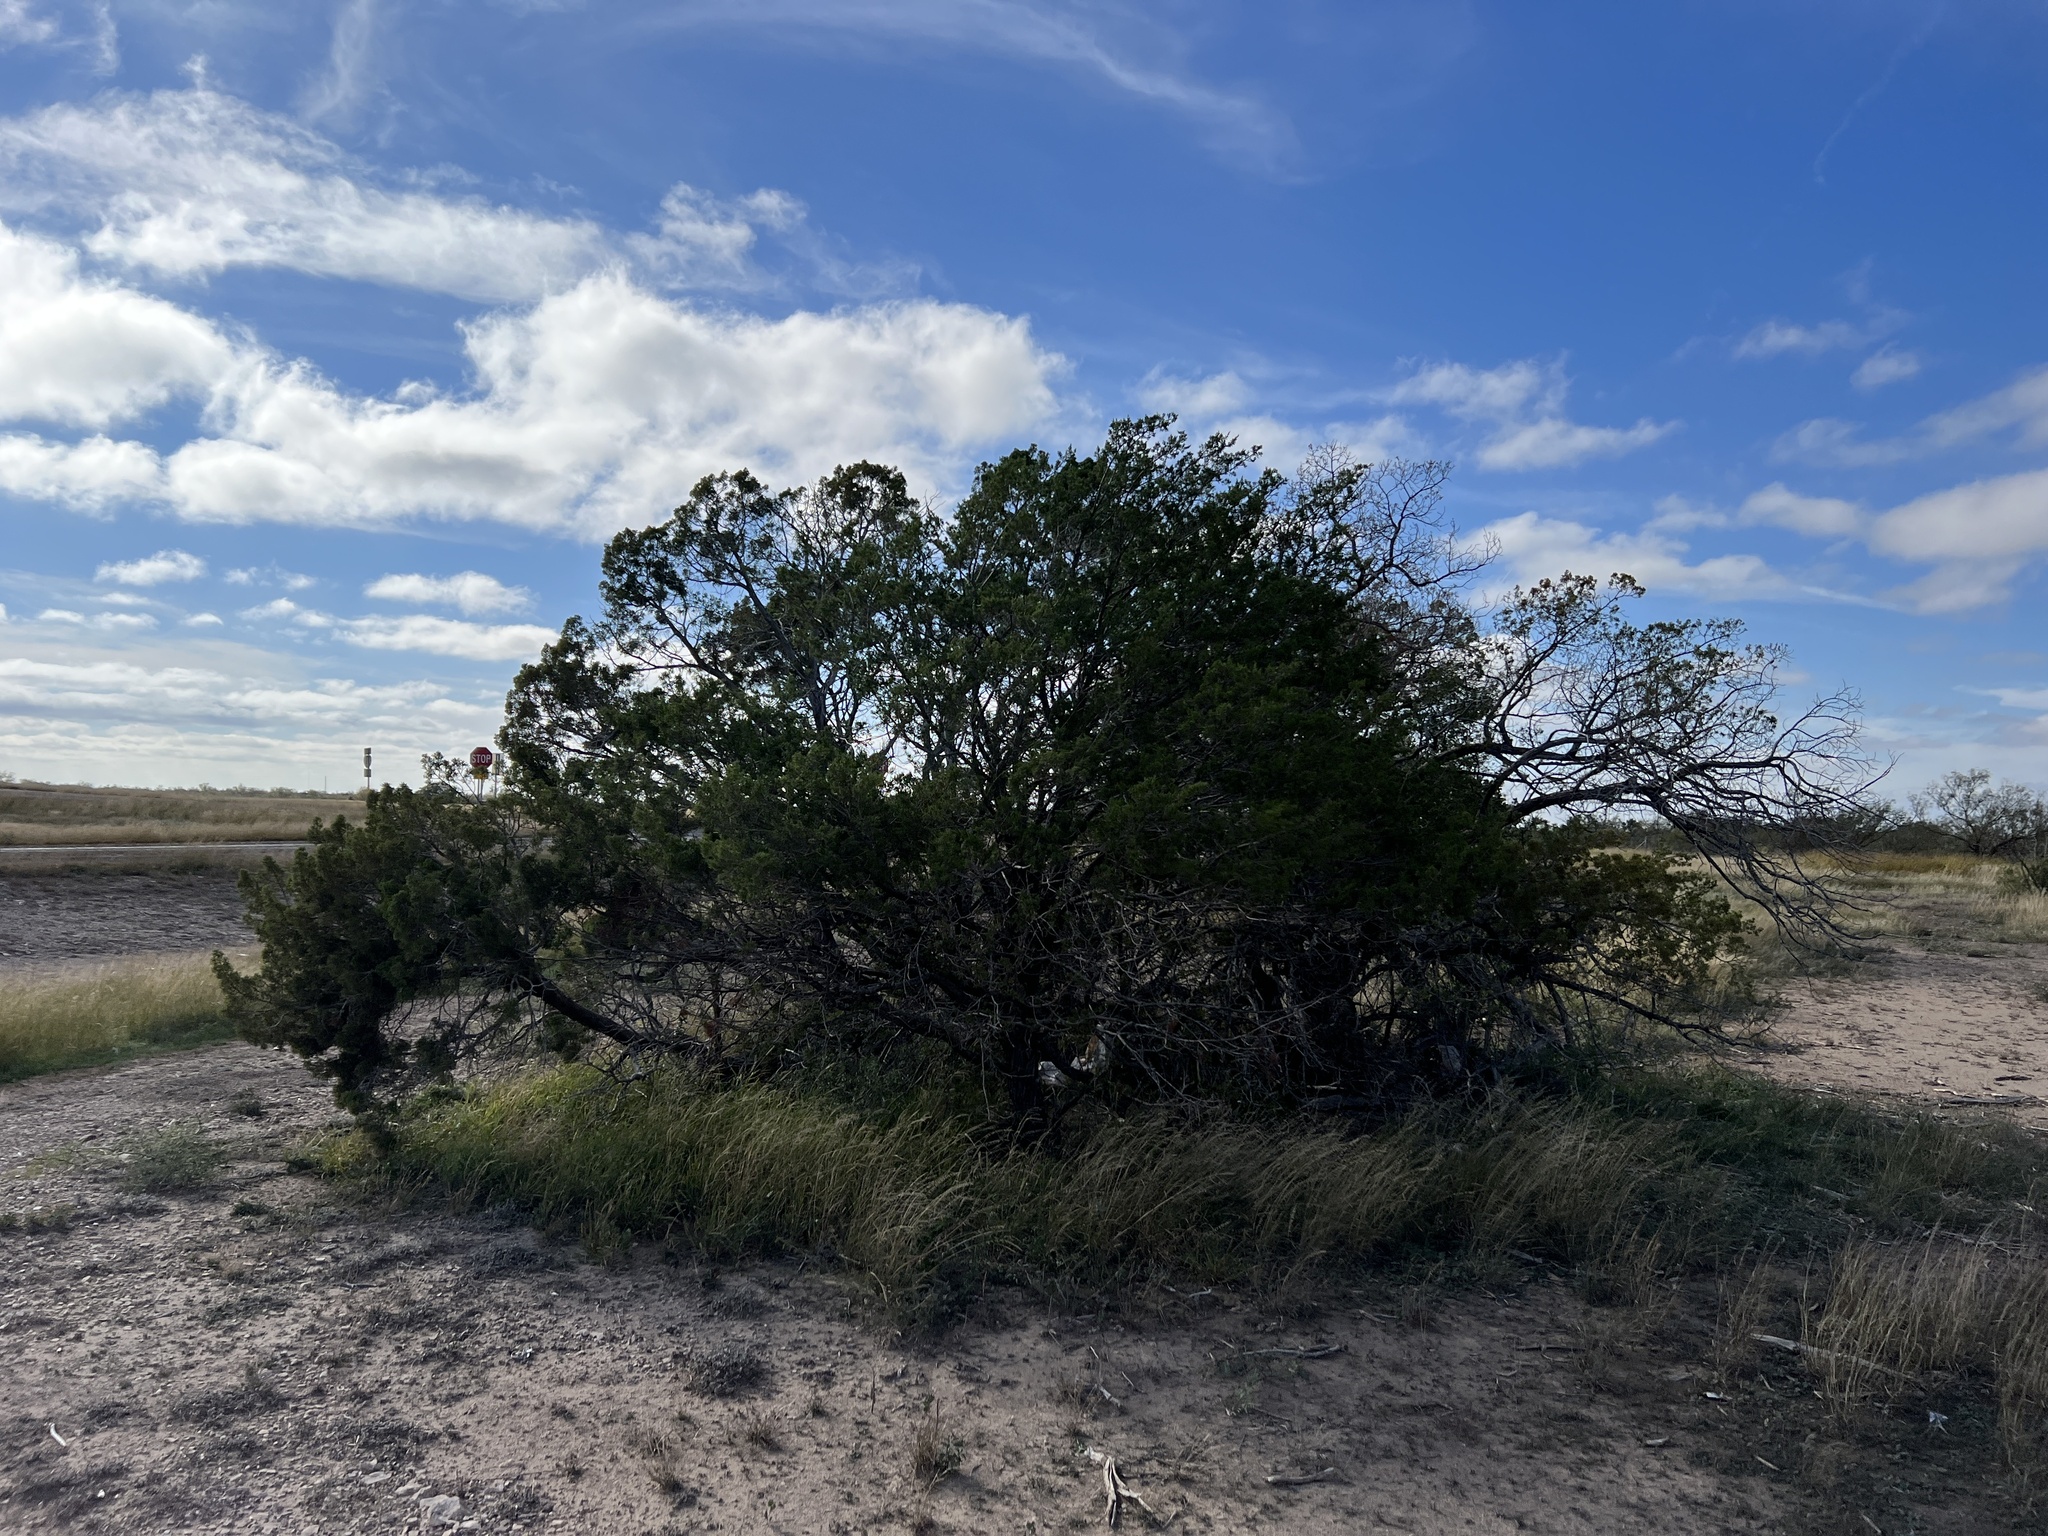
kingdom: Plantae
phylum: Tracheophyta
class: Pinopsida
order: Pinales
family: Cupressaceae
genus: Juniperus
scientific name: Juniperus ashei
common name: Mexican juniper
